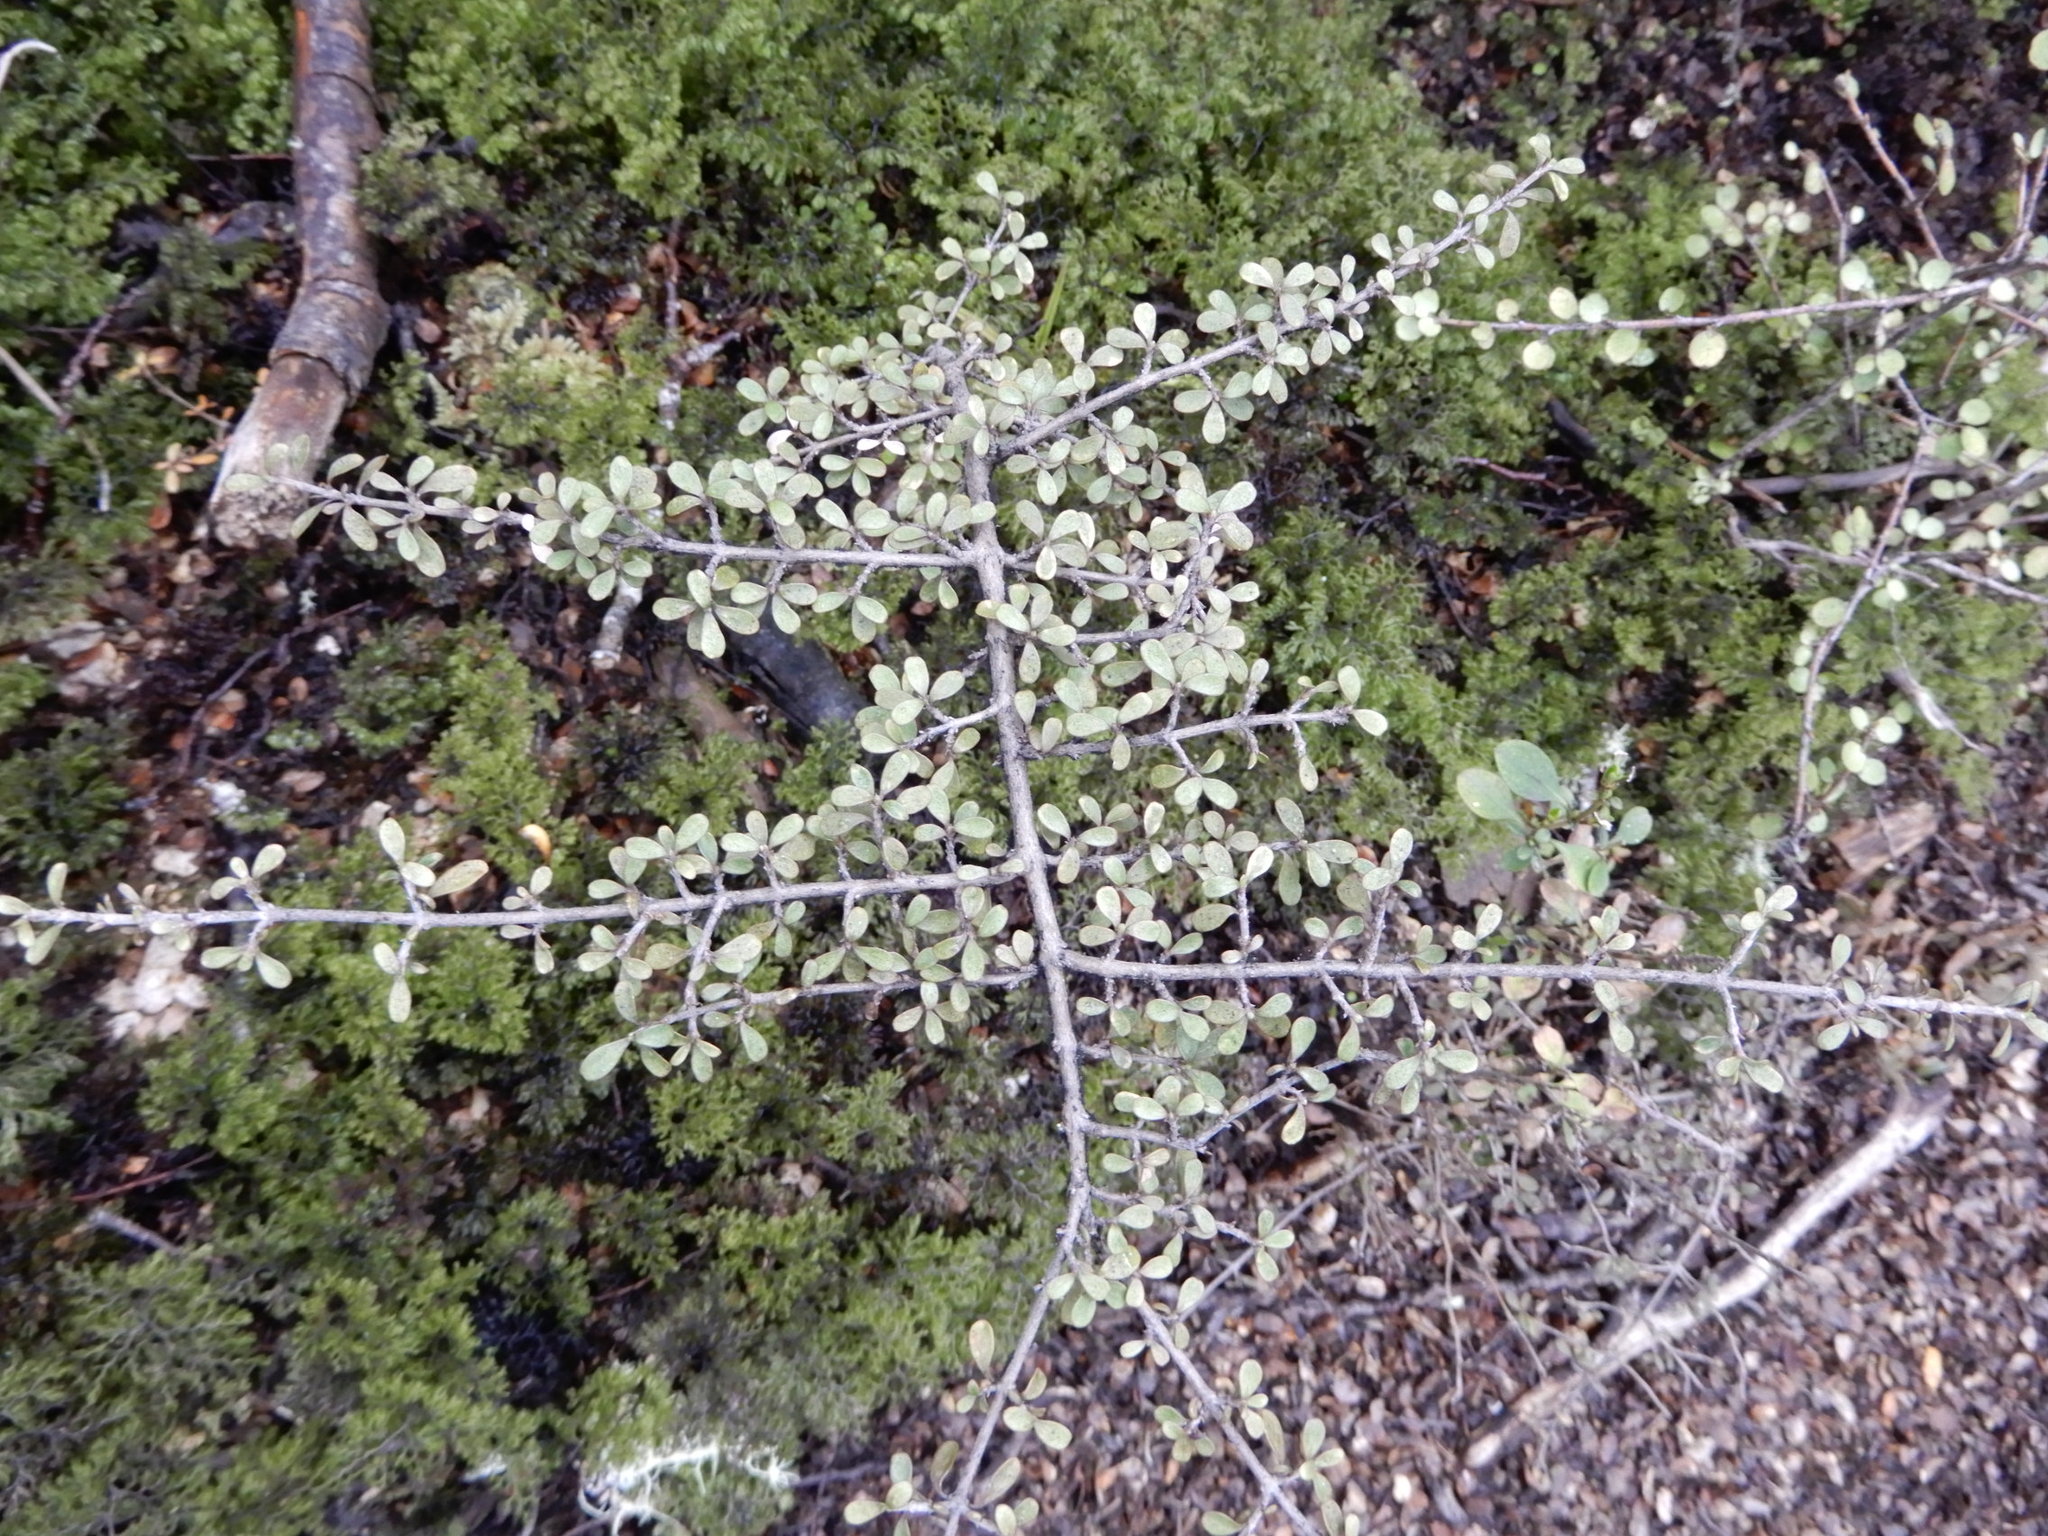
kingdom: Plantae
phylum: Tracheophyta
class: Magnoliopsida
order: Gentianales
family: Rubiaceae
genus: Coprosma
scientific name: Coprosma dumosa
